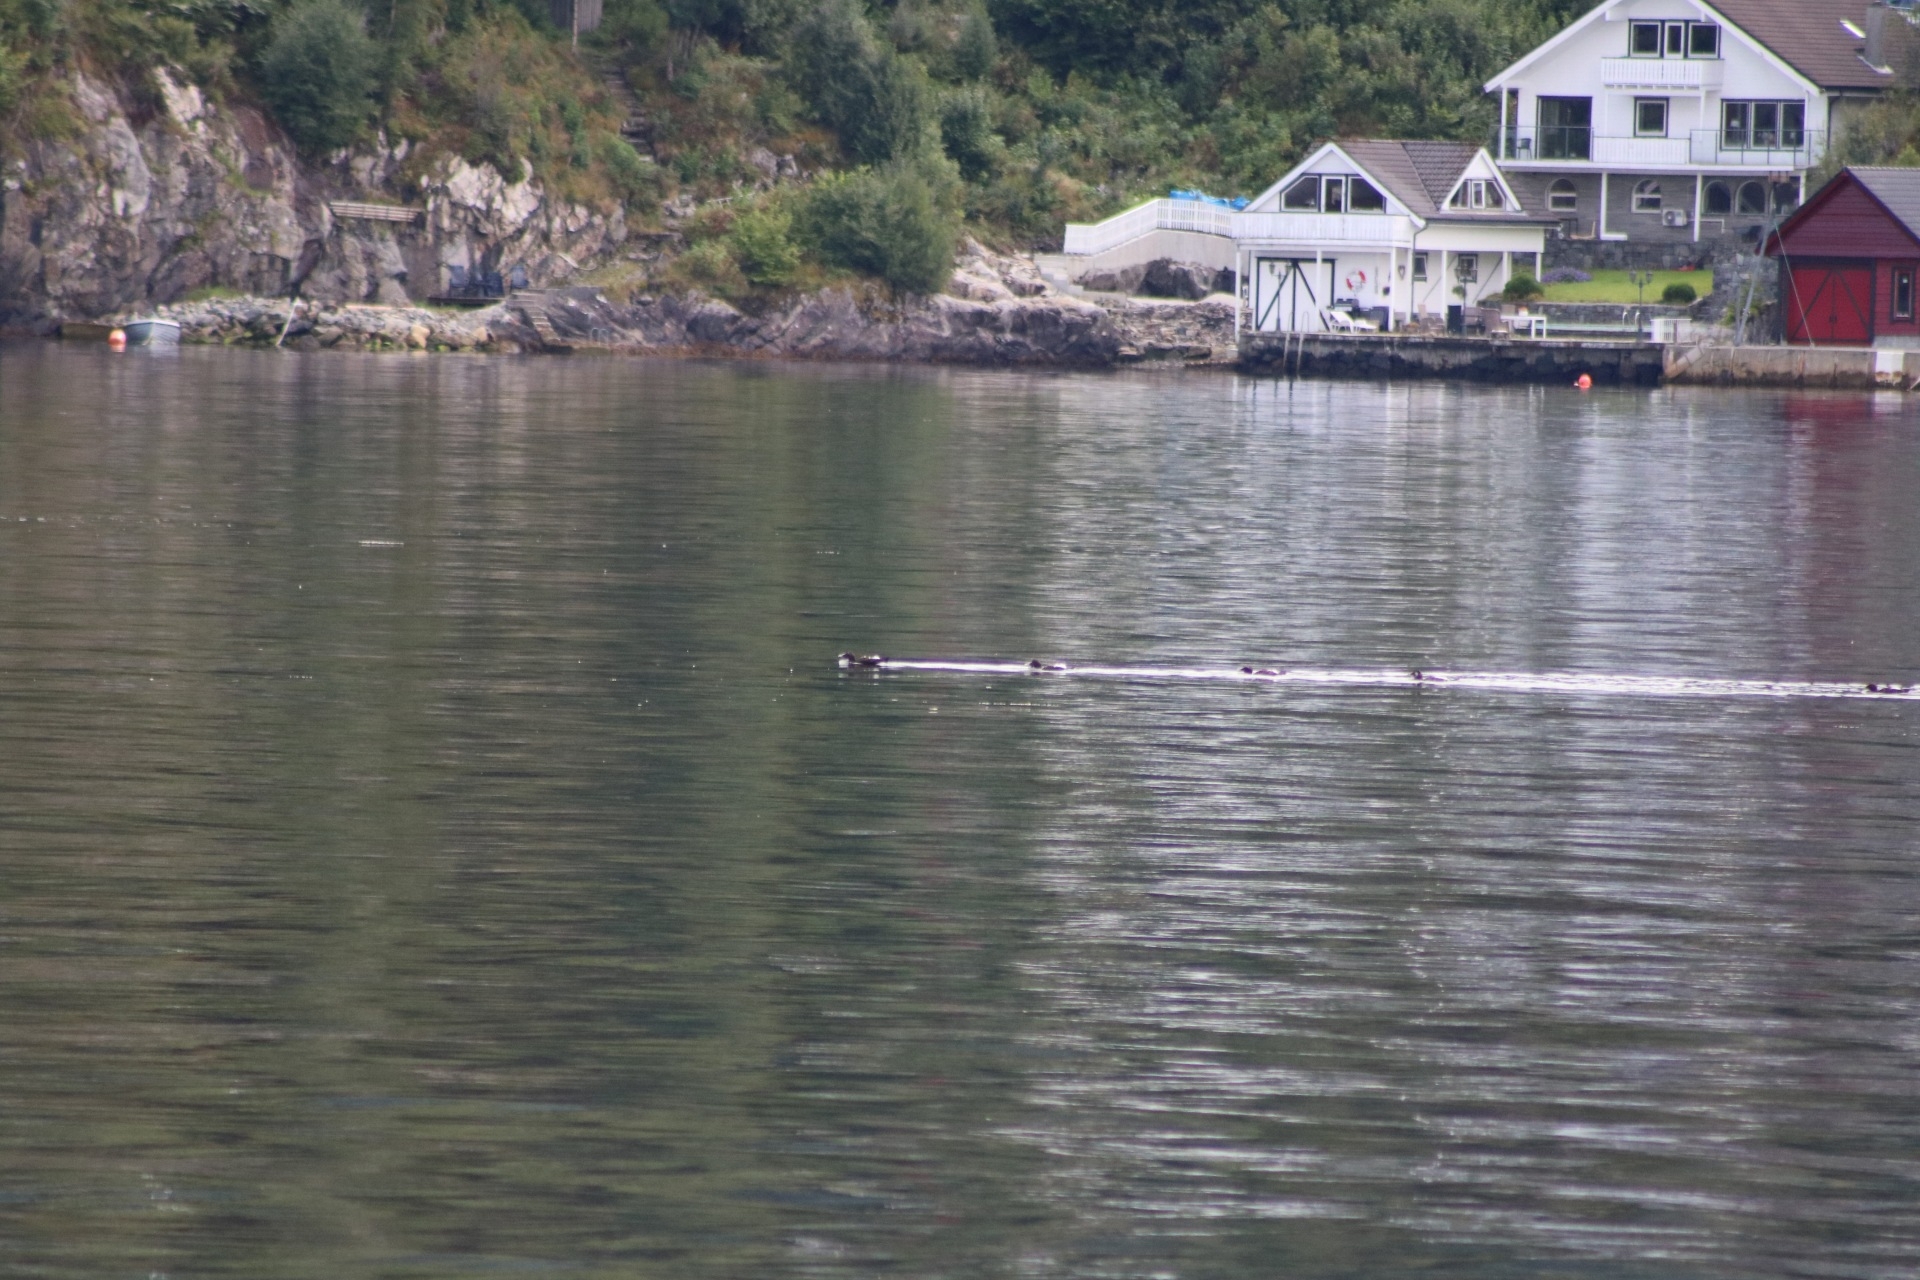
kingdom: Animalia
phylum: Chordata
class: Aves
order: Anseriformes
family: Anatidae
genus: Somateria
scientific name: Somateria mollissima
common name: Common eider
